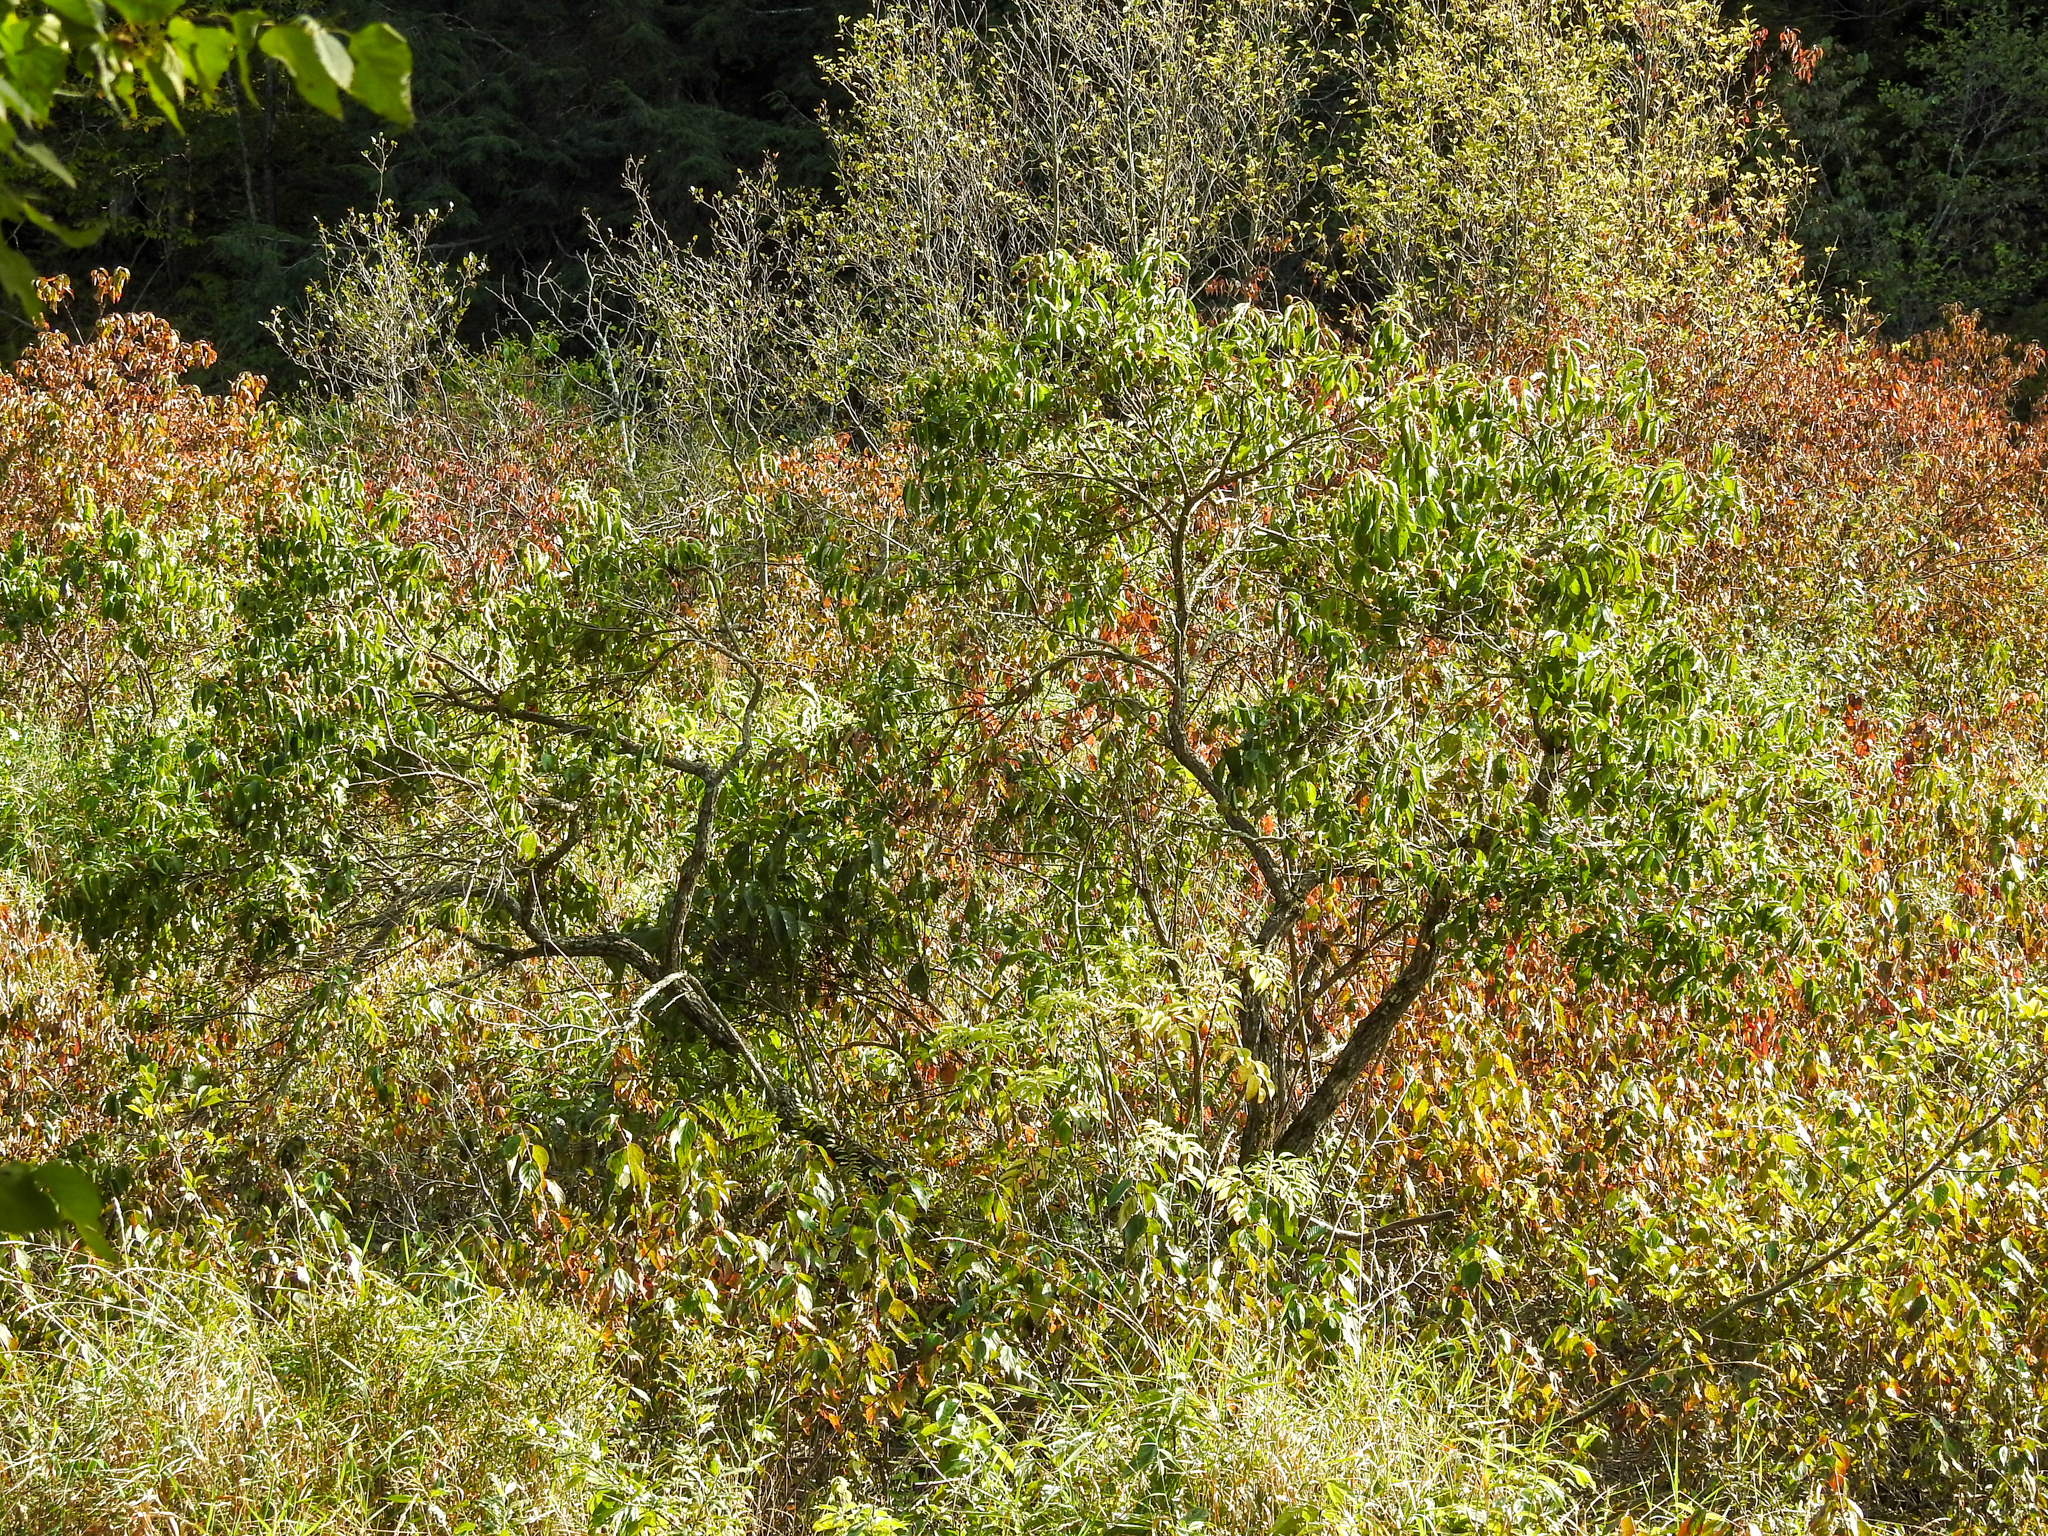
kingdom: Plantae
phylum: Tracheophyta
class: Magnoliopsida
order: Gentianales
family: Rubiaceae
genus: Cephalanthus
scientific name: Cephalanthus occidentalis
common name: Button-willow
